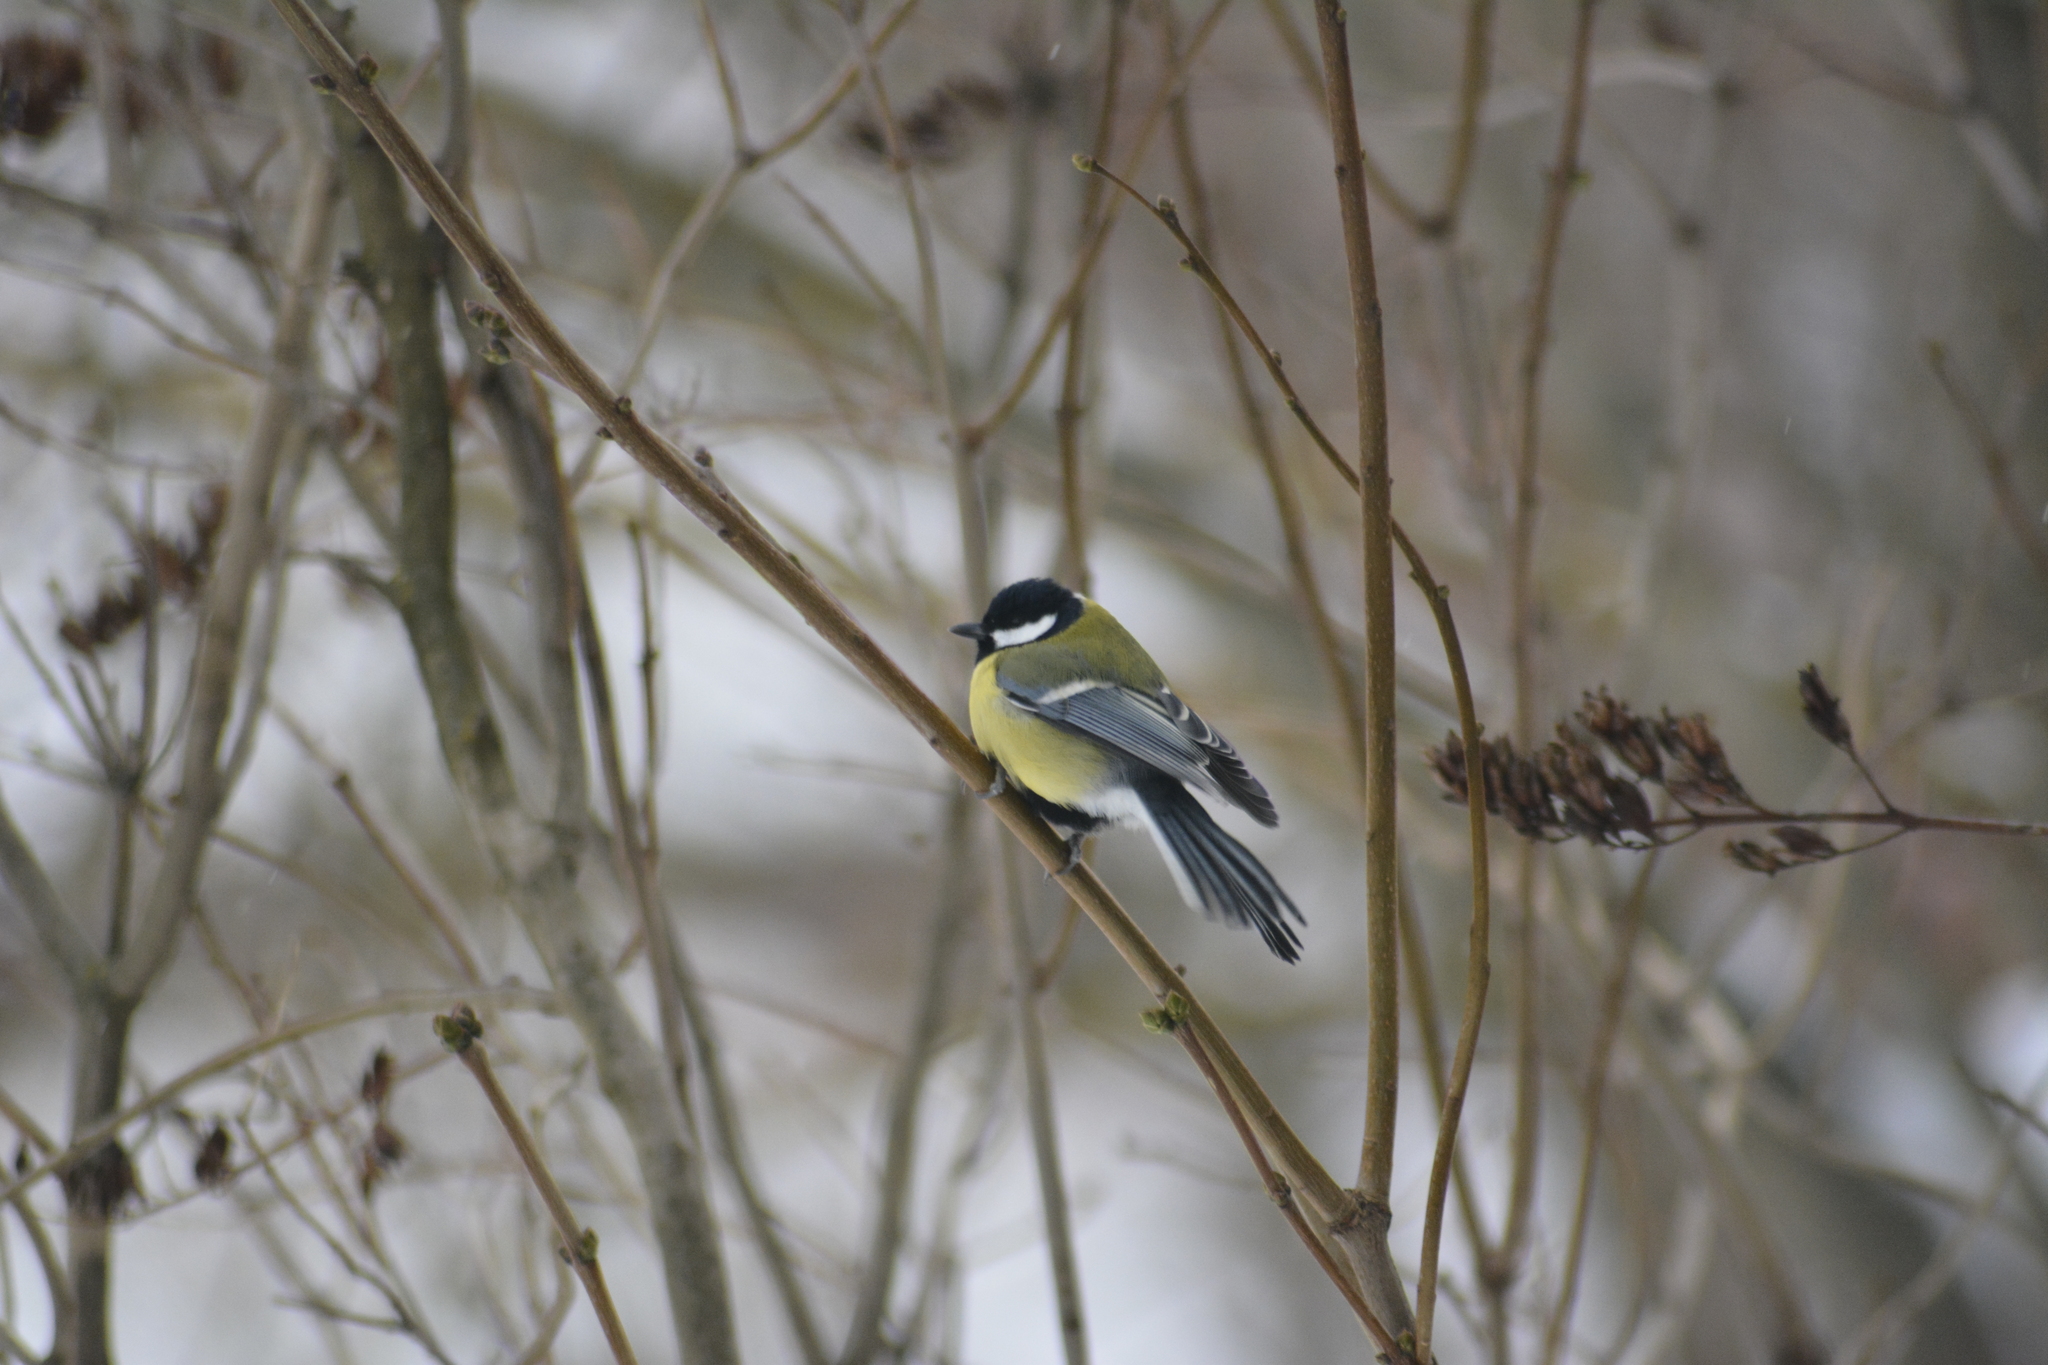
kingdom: Animalia
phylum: Chordata
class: Aves
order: Passeriformes
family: Paridae
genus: Parus
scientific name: Parus major
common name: Great tit
